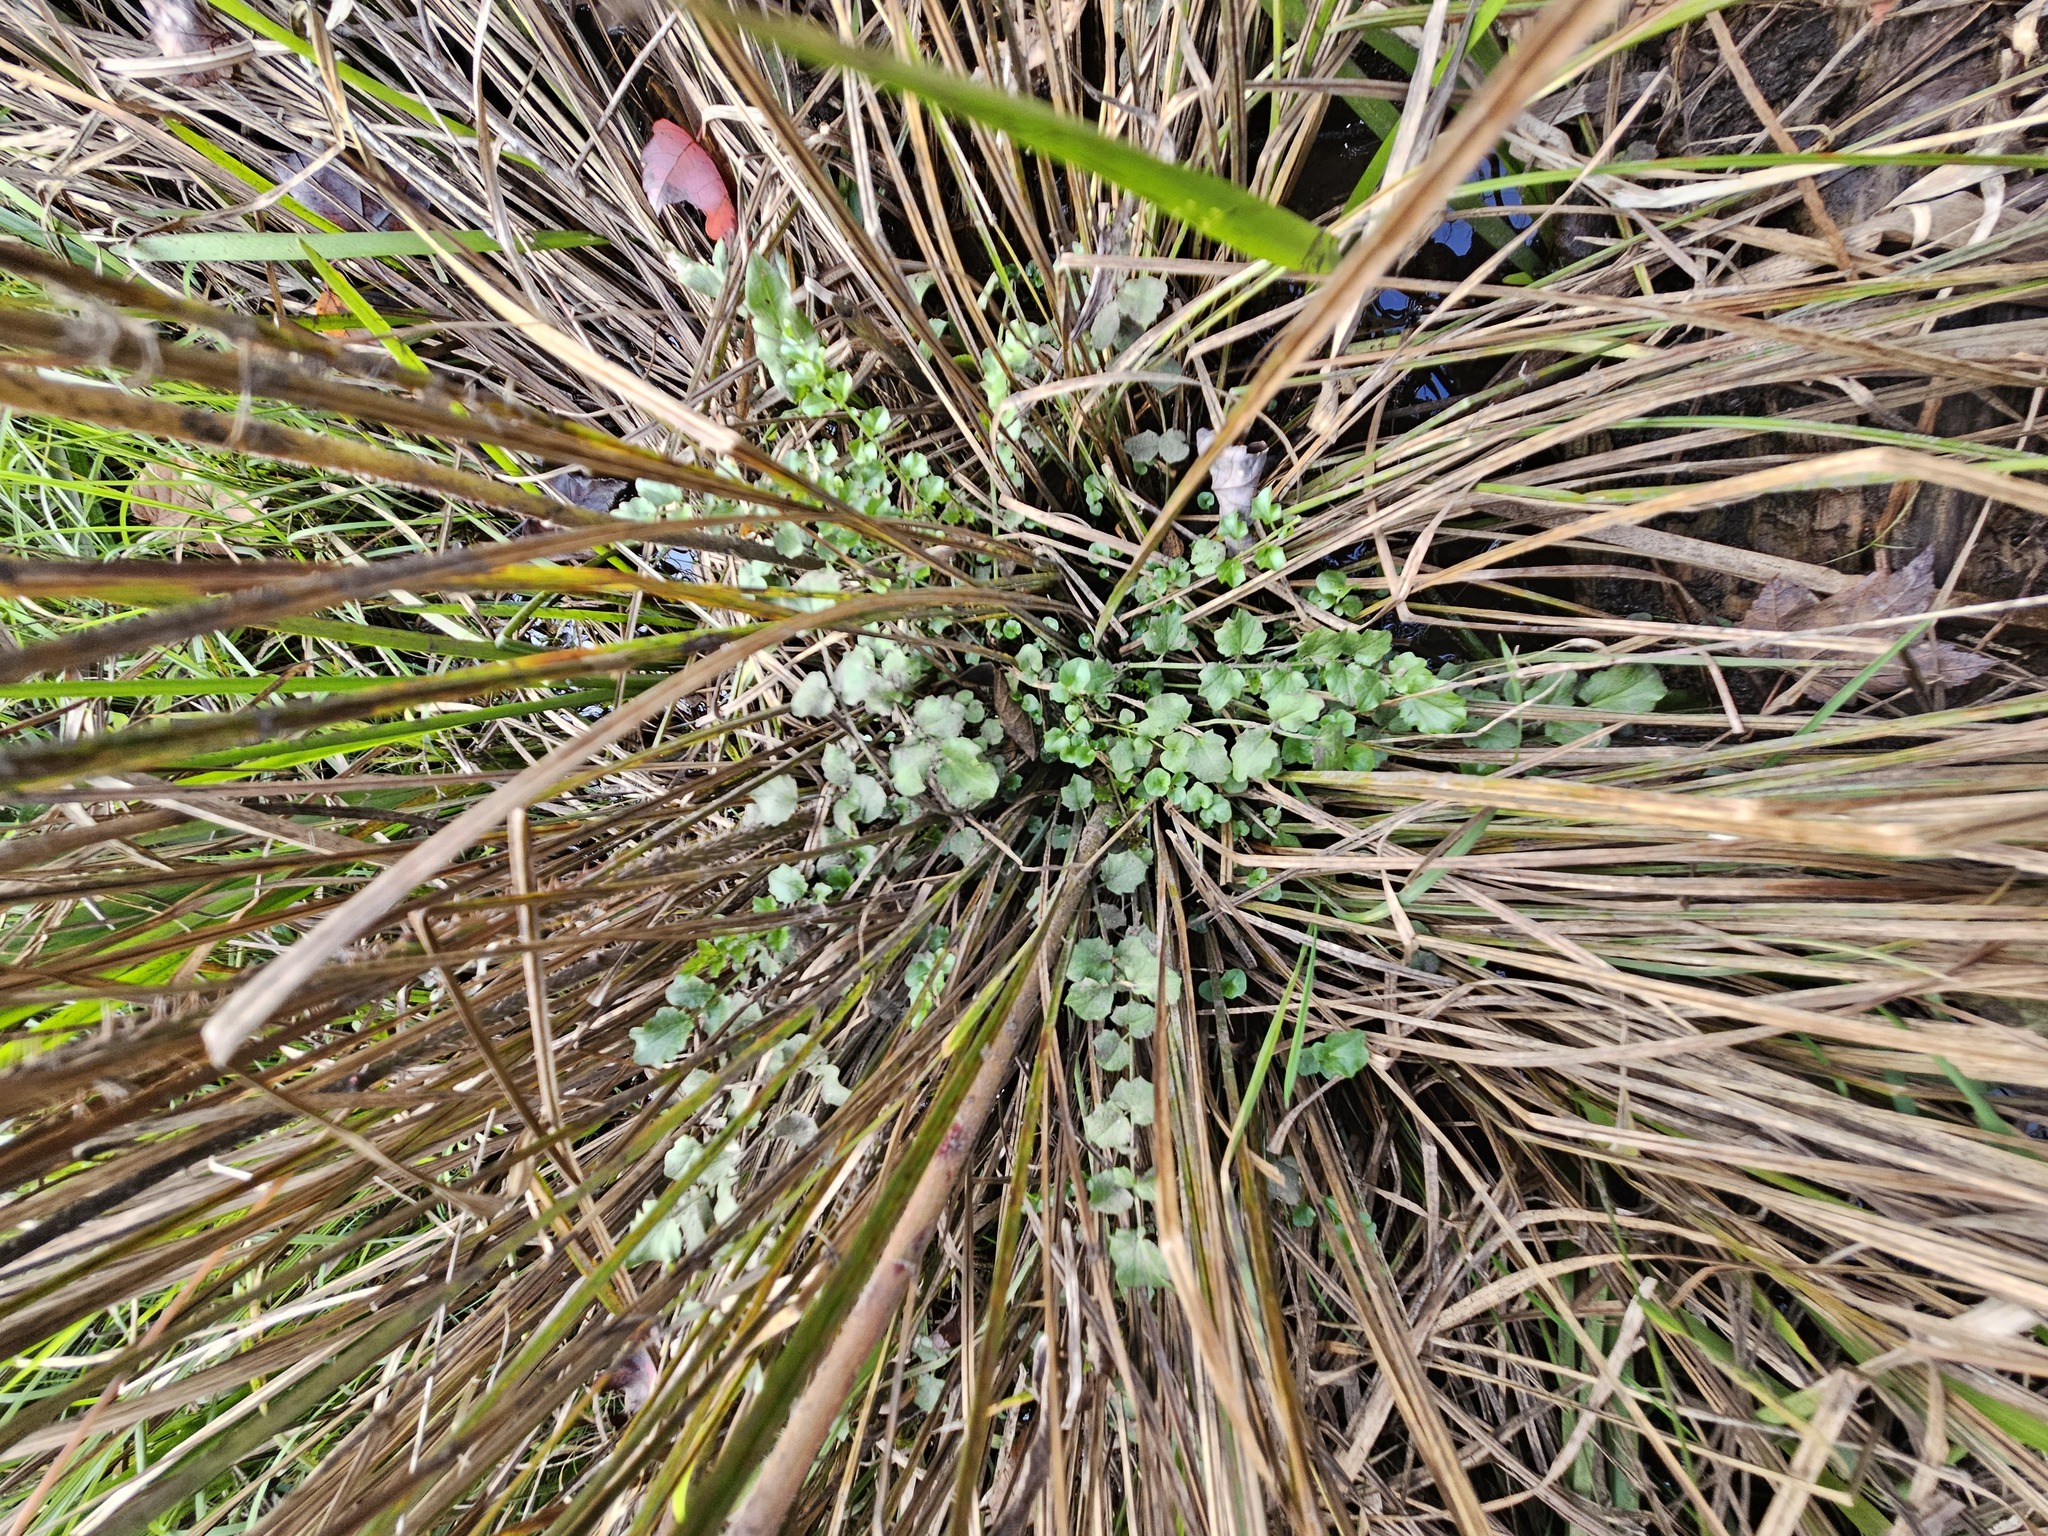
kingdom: Plantae
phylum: Tracheophyta
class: Magnoliopsida
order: Brassicales
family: Brassicaceae
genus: Nasturtium
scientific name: Nasturtium officinale
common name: Watercress
